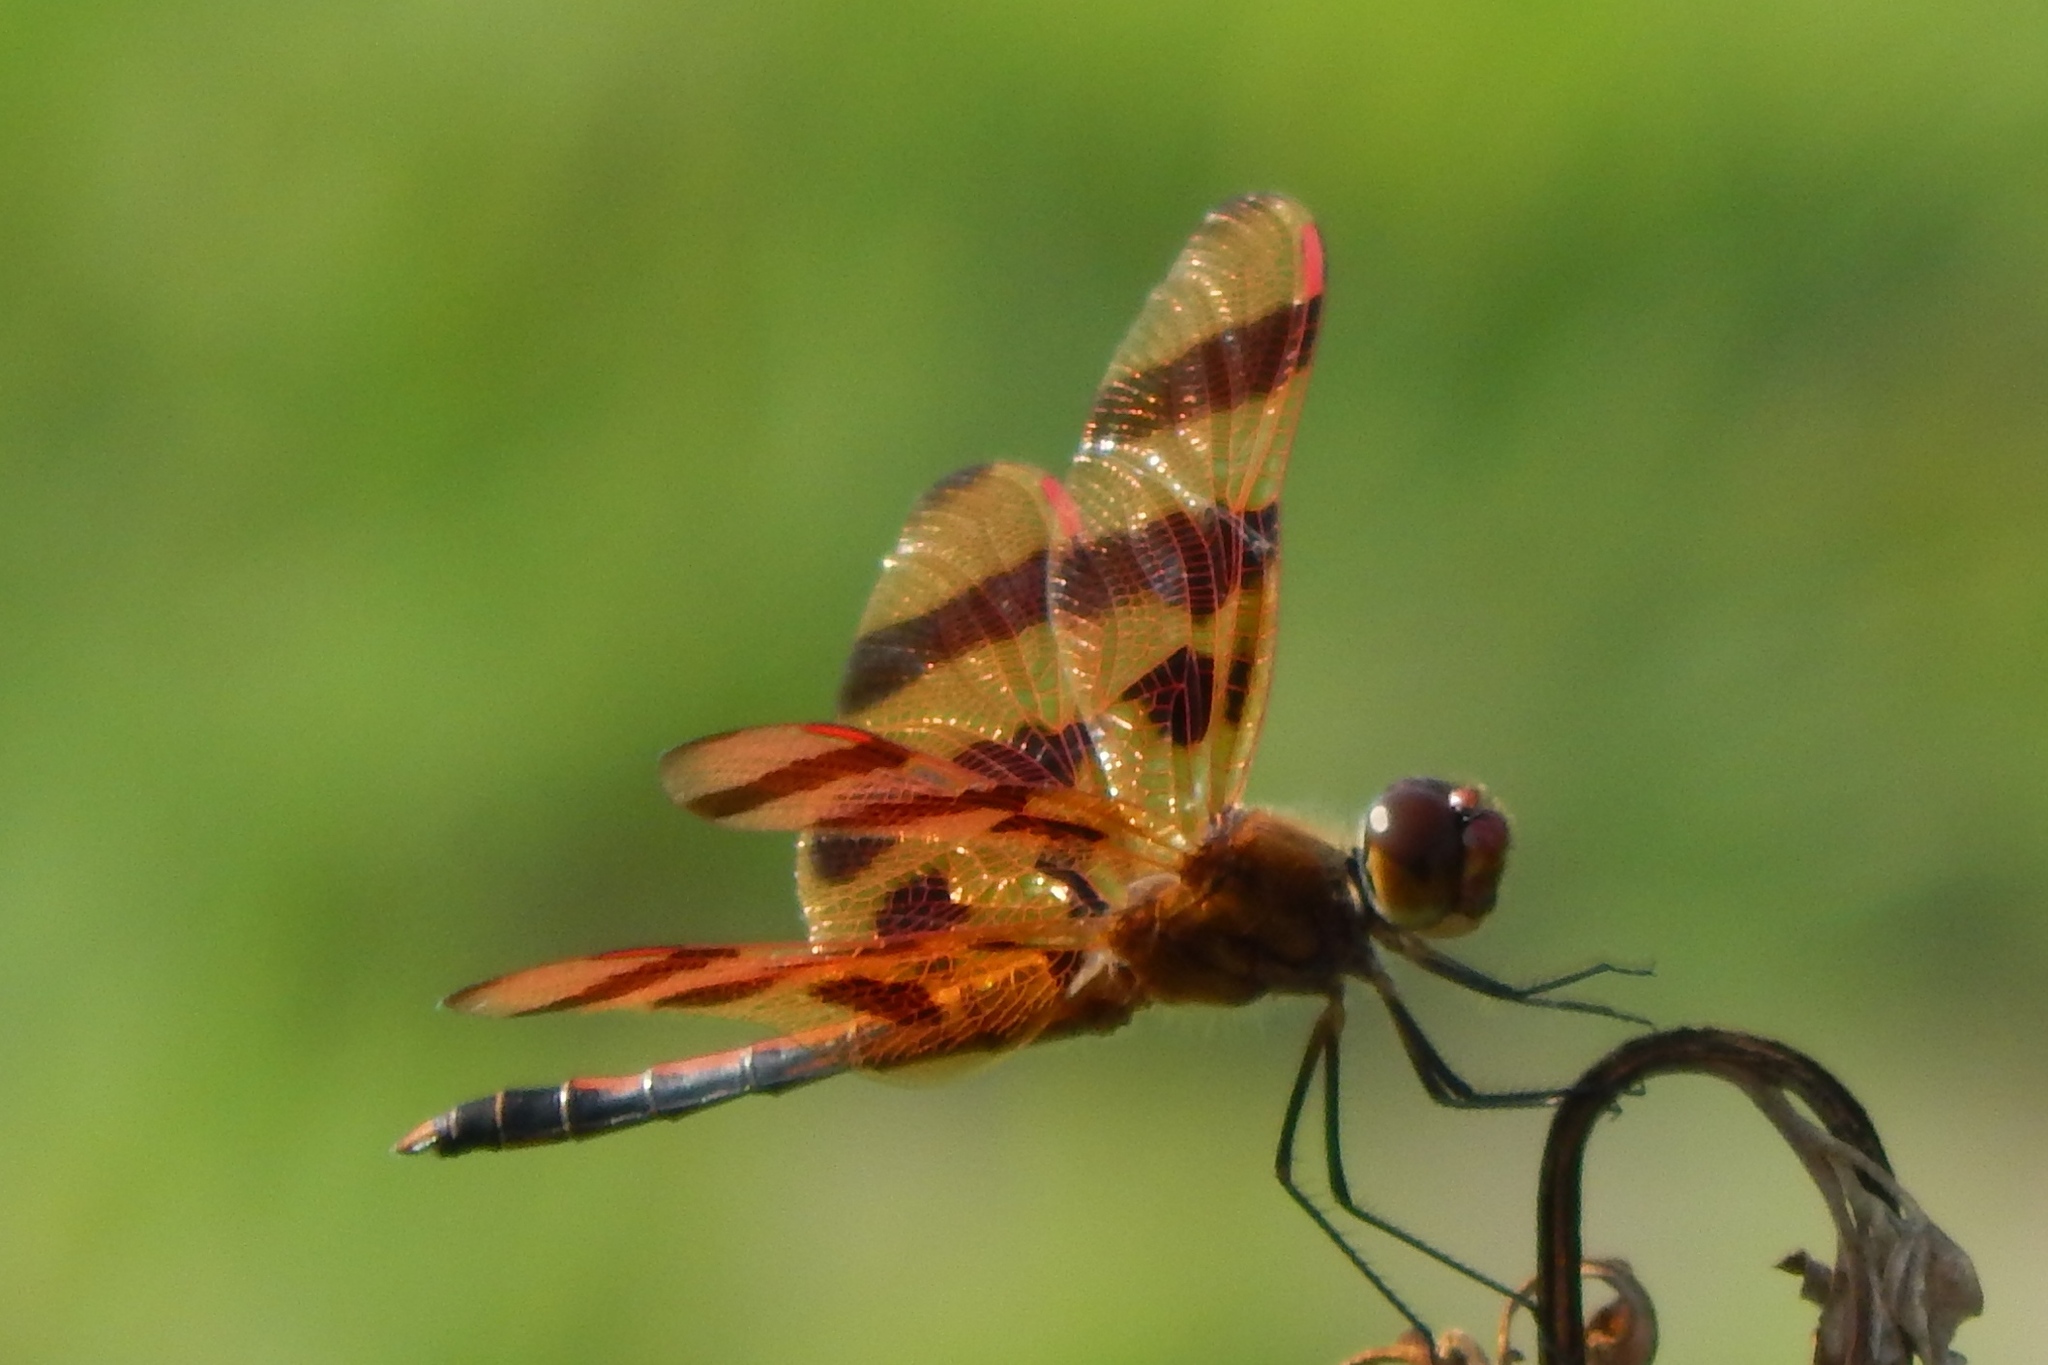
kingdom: Animalia
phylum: Arthropoda
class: Insecta
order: Odonata
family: Libellulidae
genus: Celithemis
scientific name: Celithemis eponina
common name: Halloween pennant
